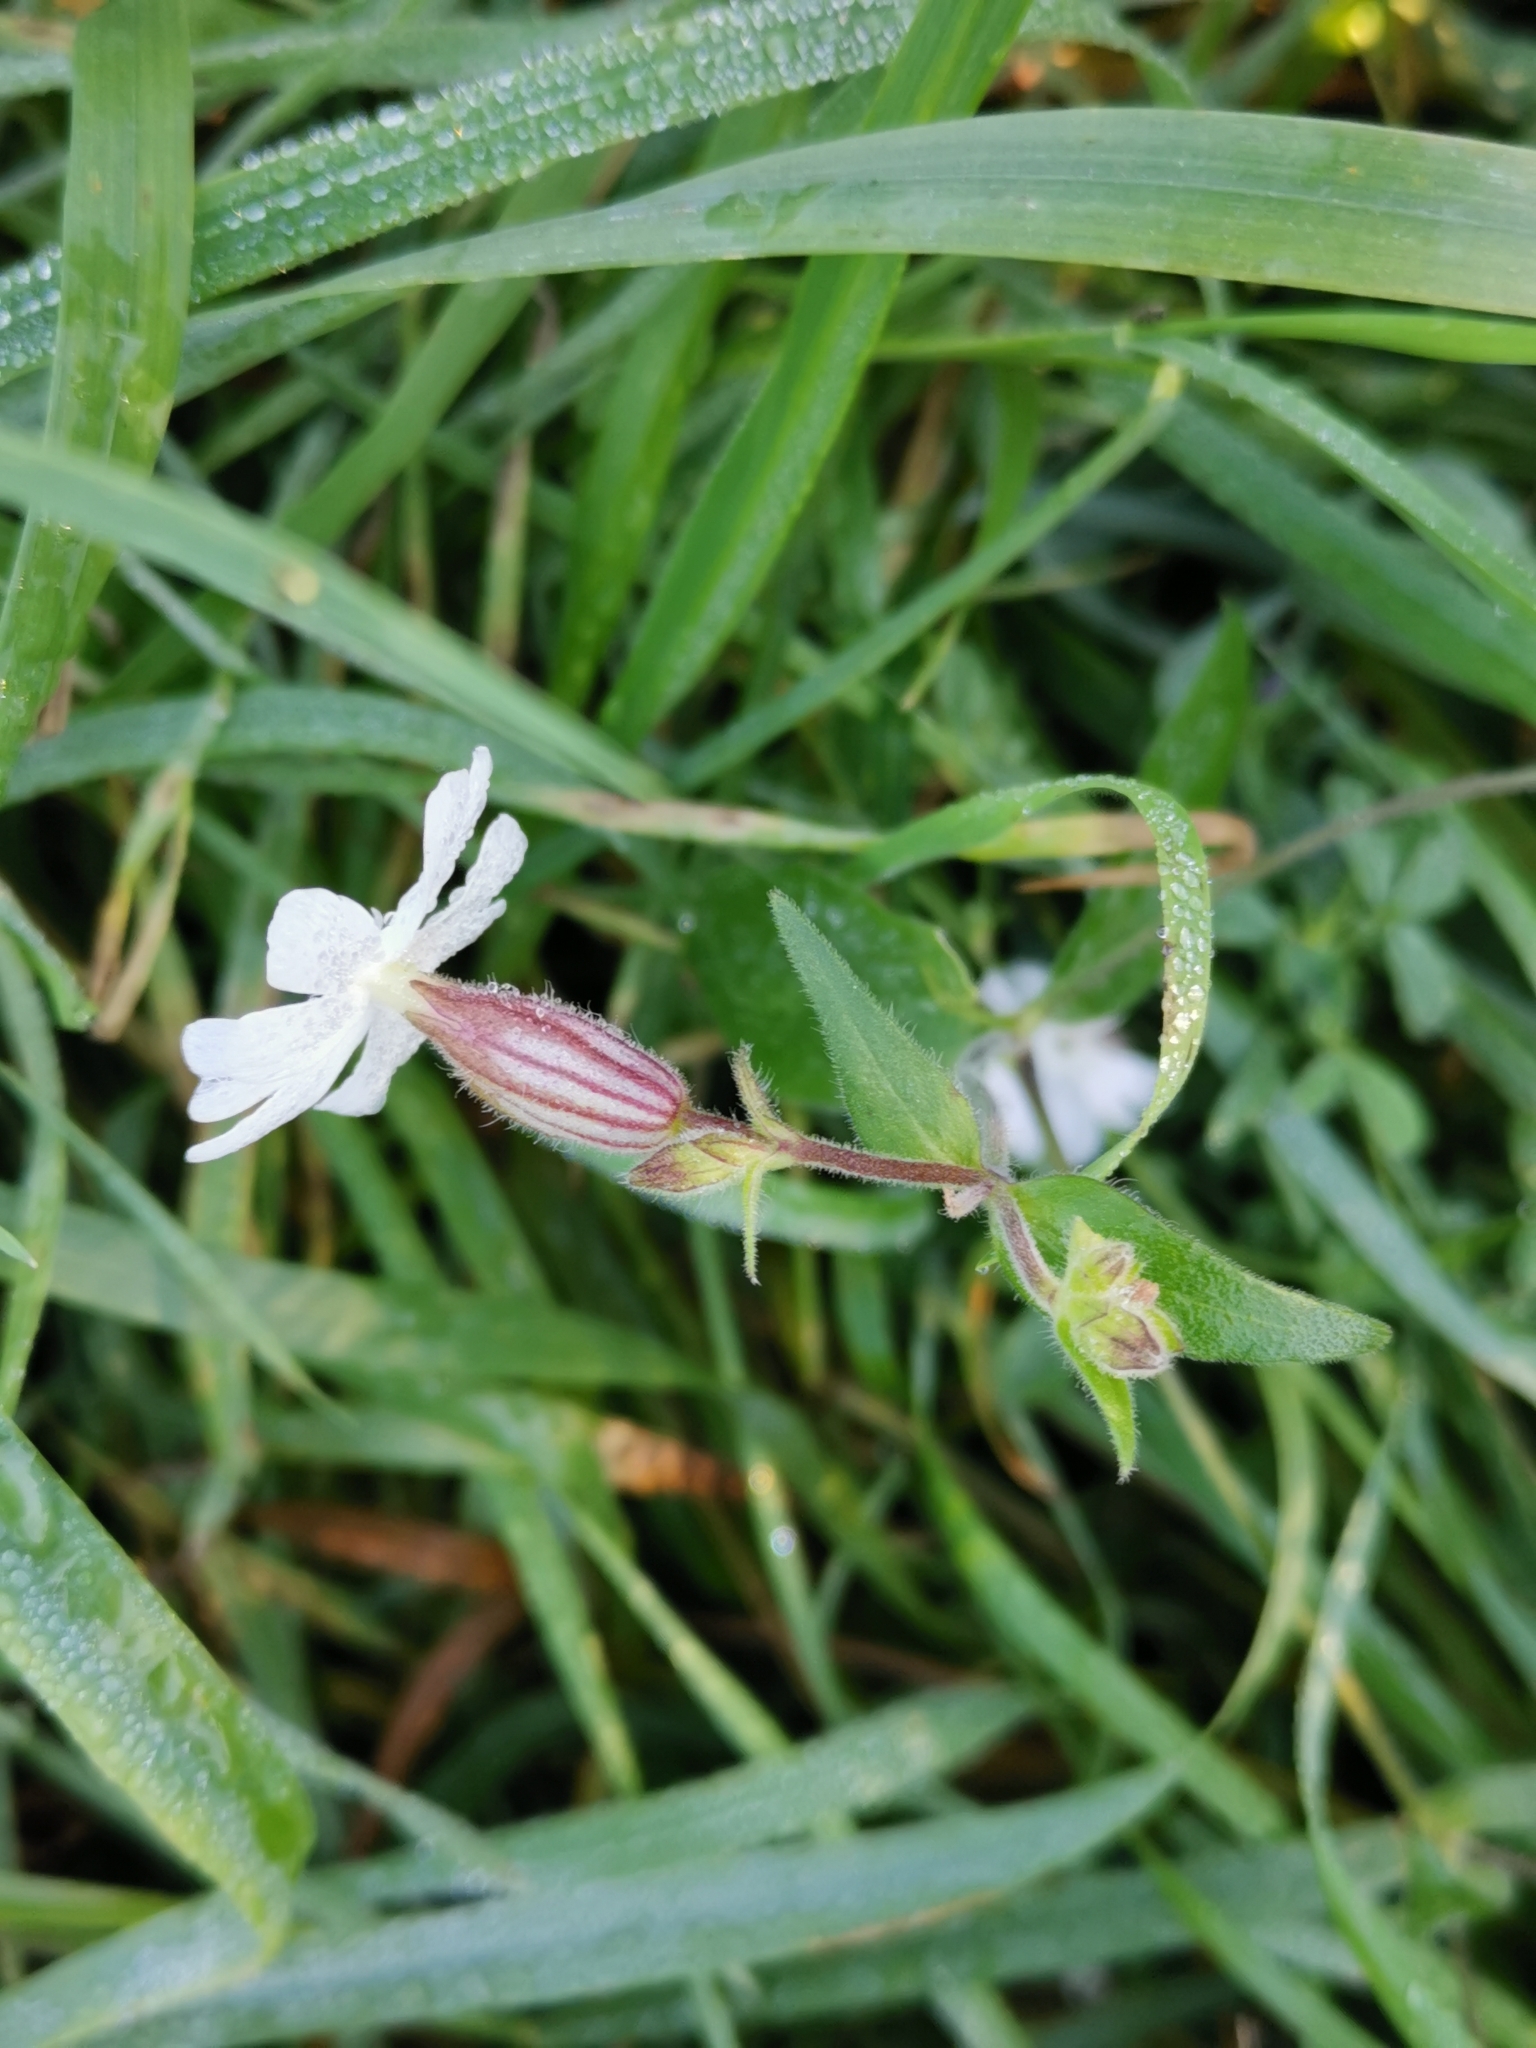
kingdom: Plantae
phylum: Tracheophyta
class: Magnoliopsida
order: Caryophyllales
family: Caryophyllaceae
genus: Silene
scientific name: Silene latifolia
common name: White campion
